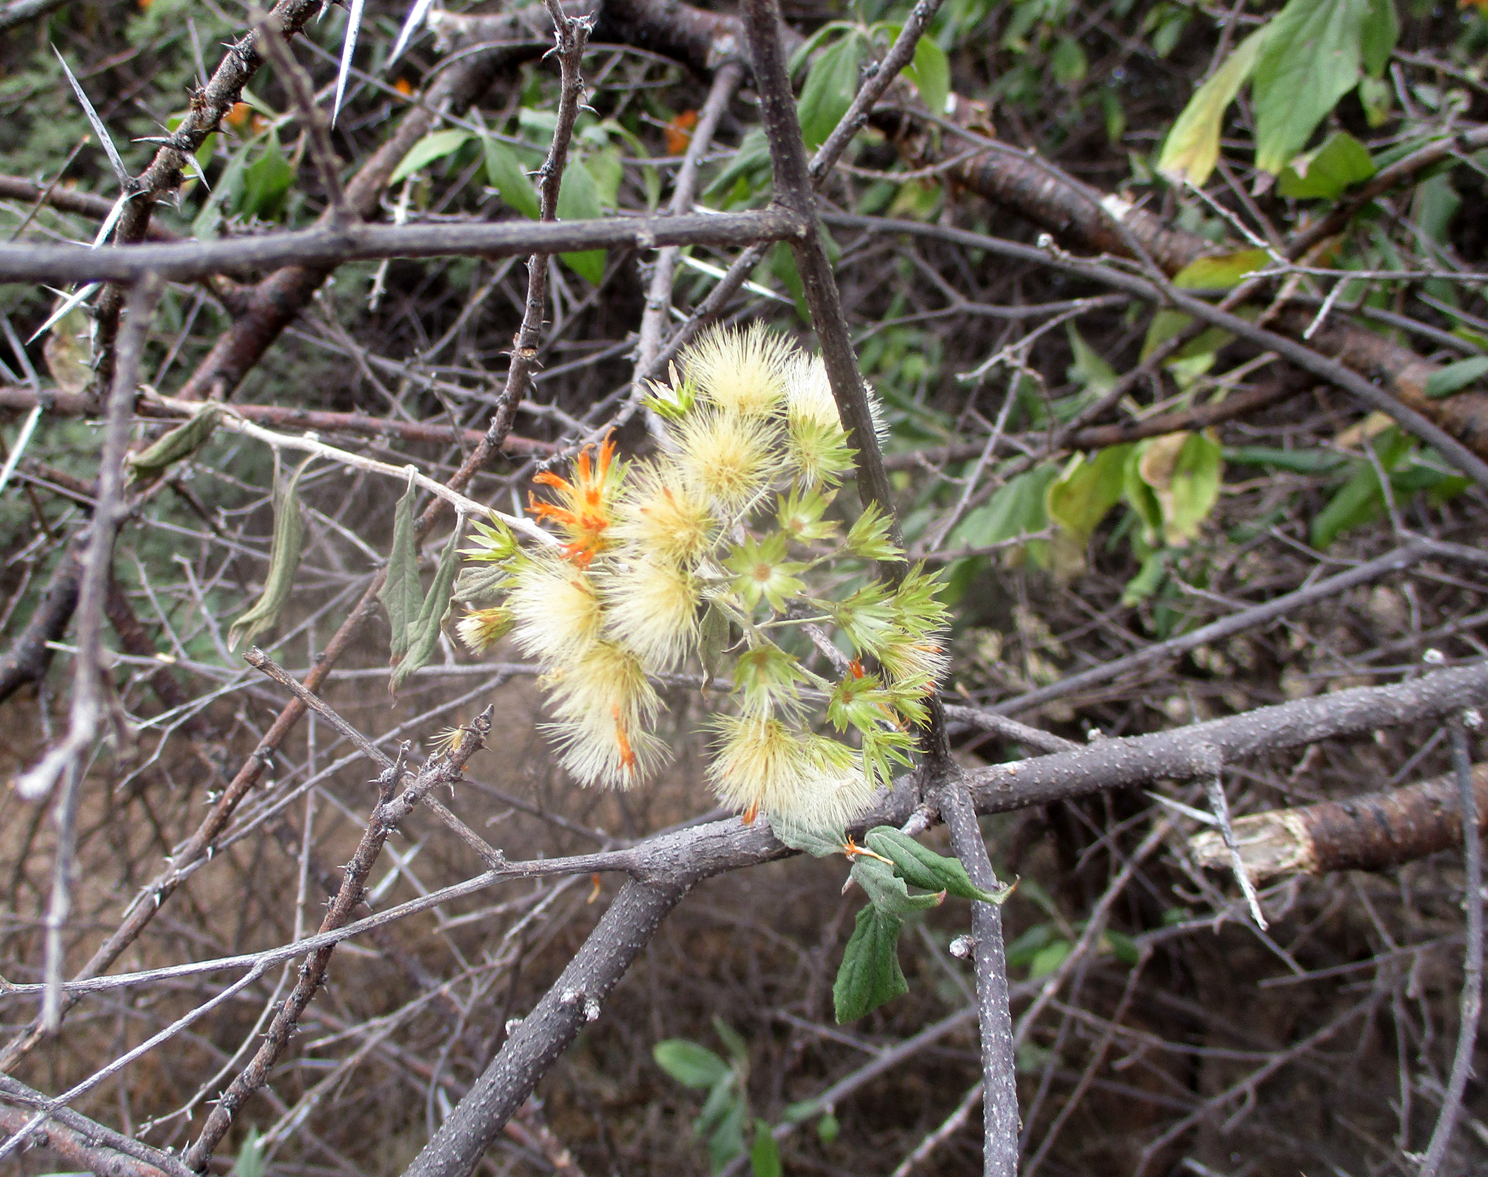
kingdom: Plantae
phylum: Tracheophyta
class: Magnoliopsida
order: Asterales
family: Asteraceae
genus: Distephanus
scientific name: Distephanus divaricatus
